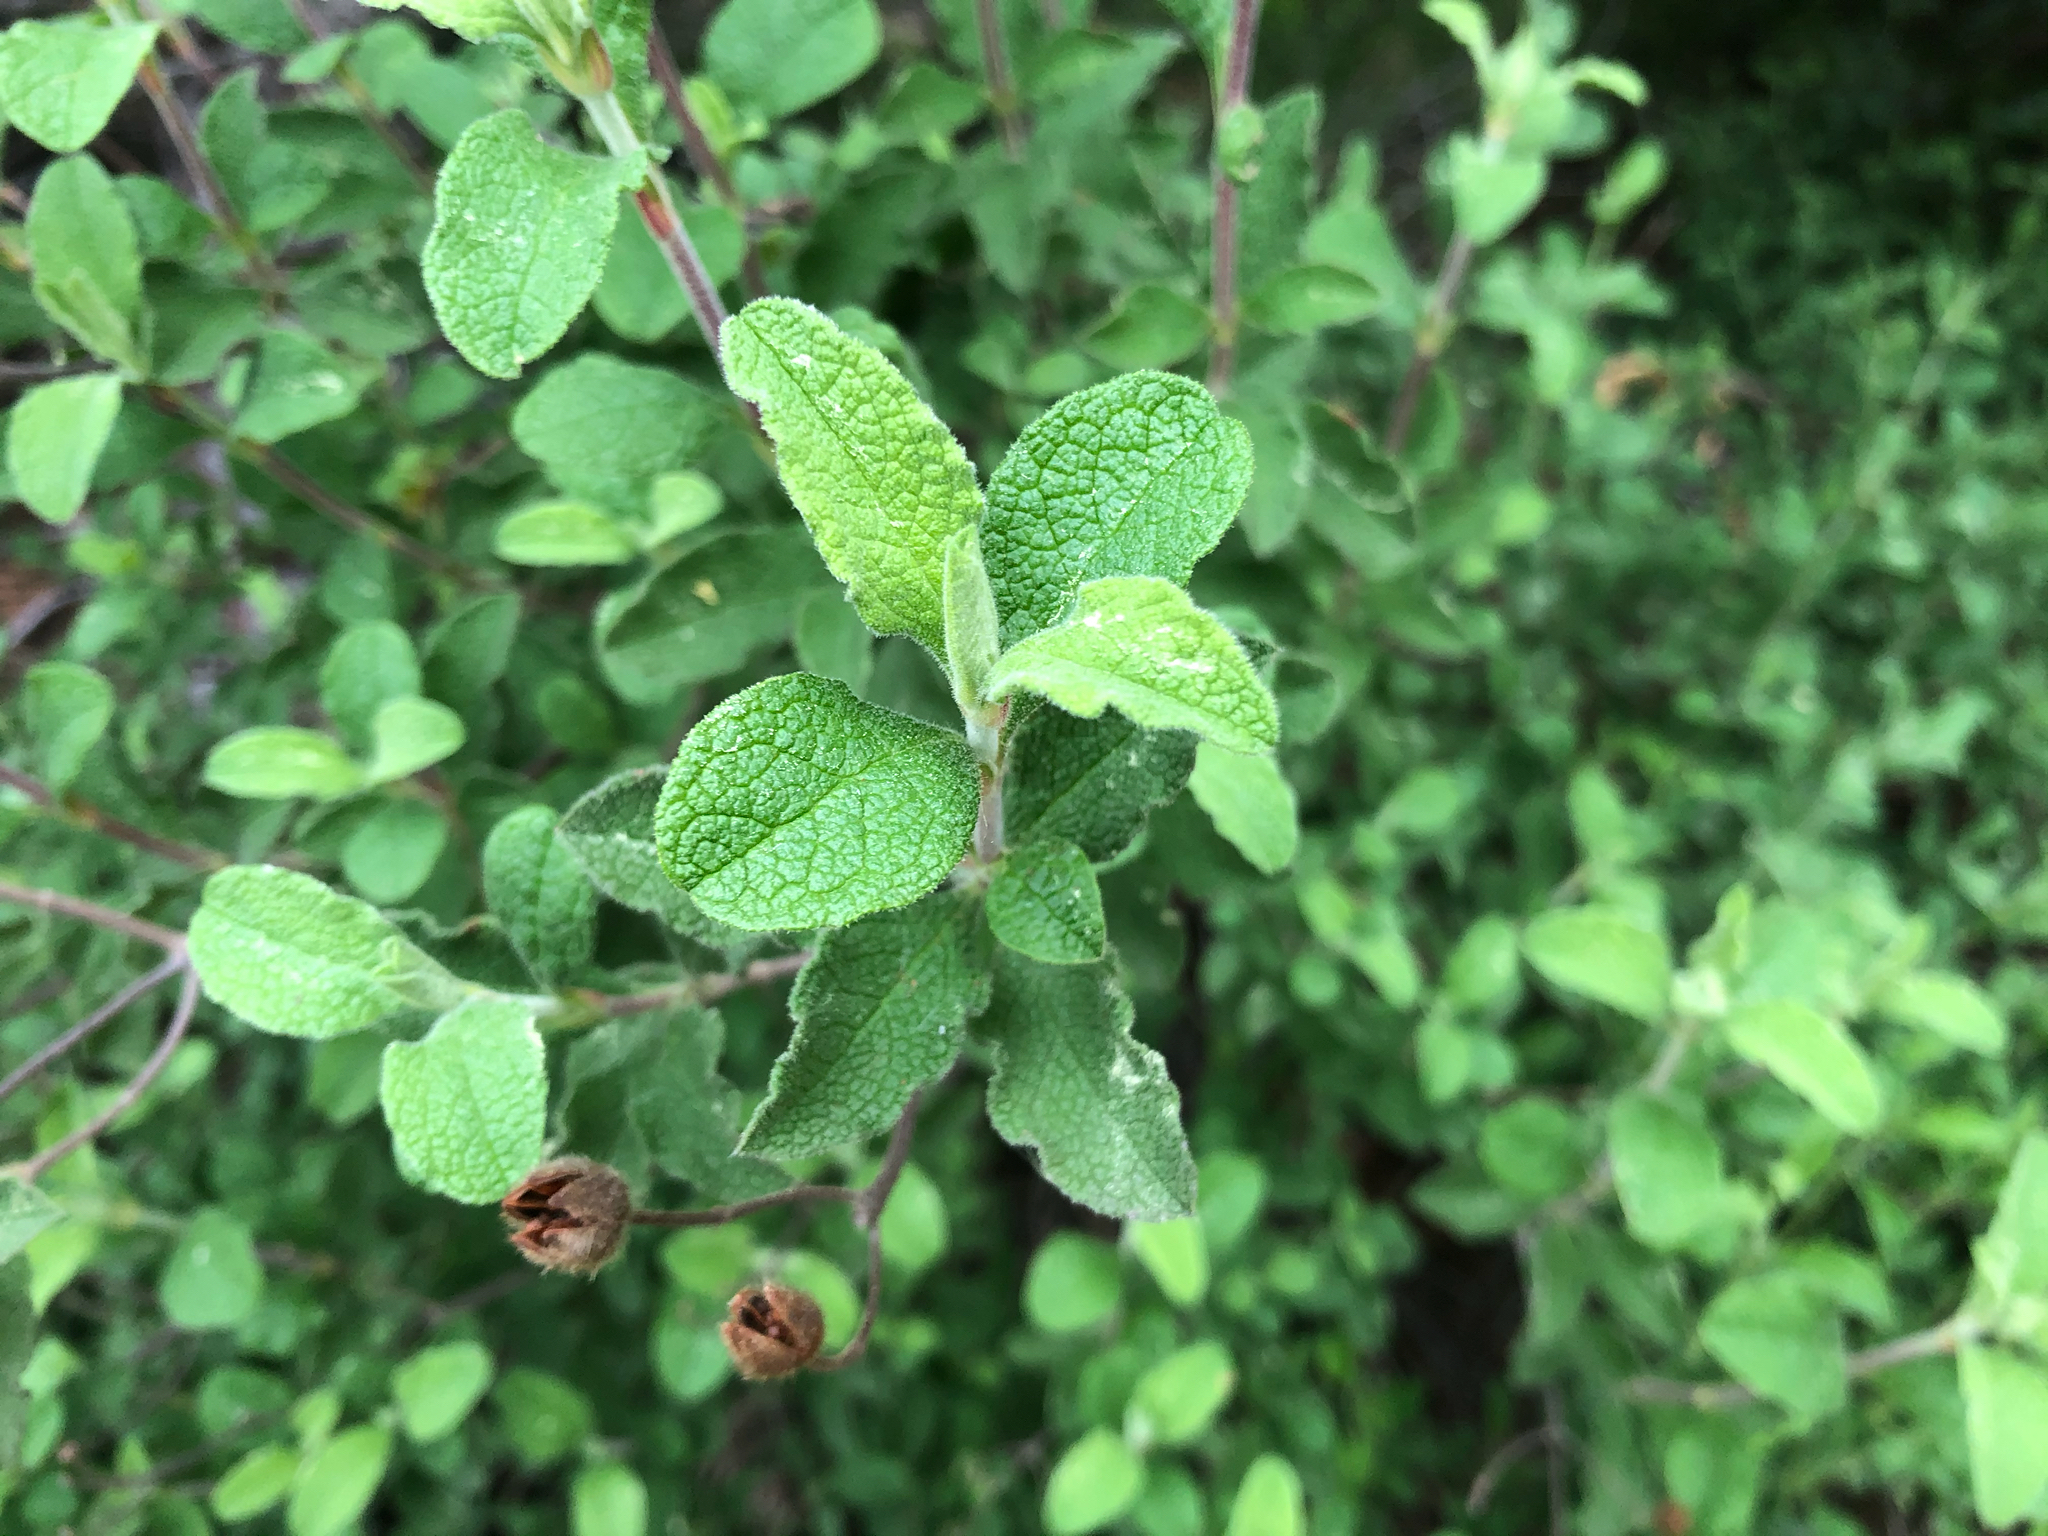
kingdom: Plantae
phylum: Tracheophyta
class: Magnoliopsida
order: Malvales
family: Cistaceae
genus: Cistus
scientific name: Cistus creticus
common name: Cretan rockrose
